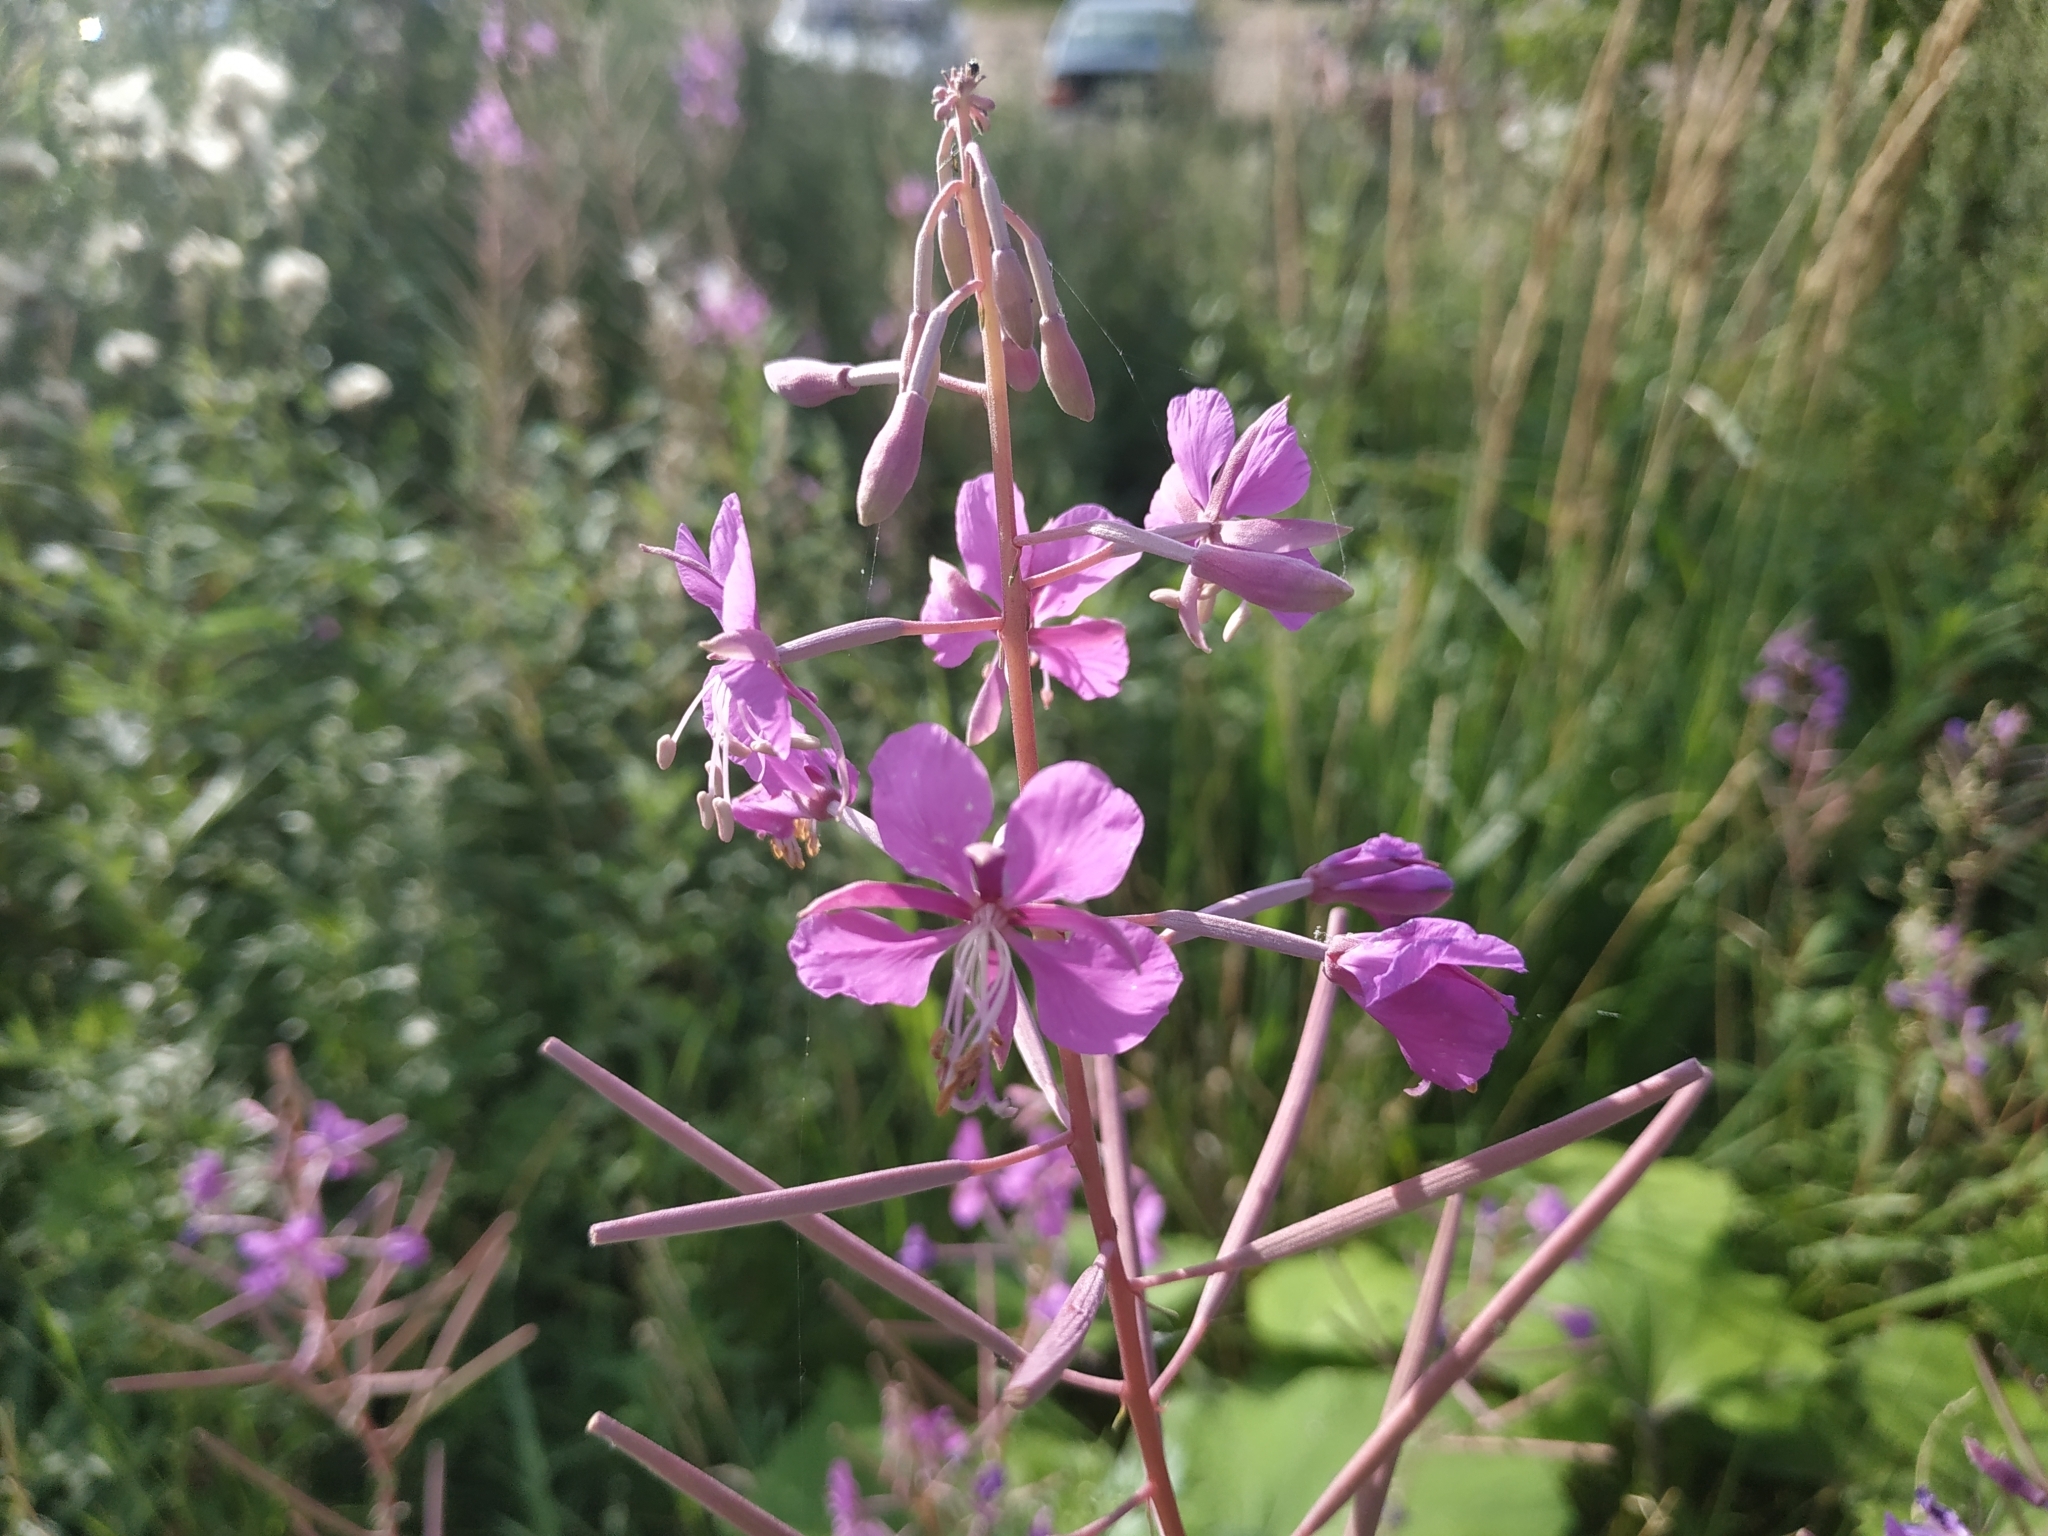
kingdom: Plantae
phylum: Tracheophyta
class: Magnoliopsida
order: Myrtales
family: Onagraceae
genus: Chamaenerion
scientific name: Chamaenerion angustifolium
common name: Fireweed
